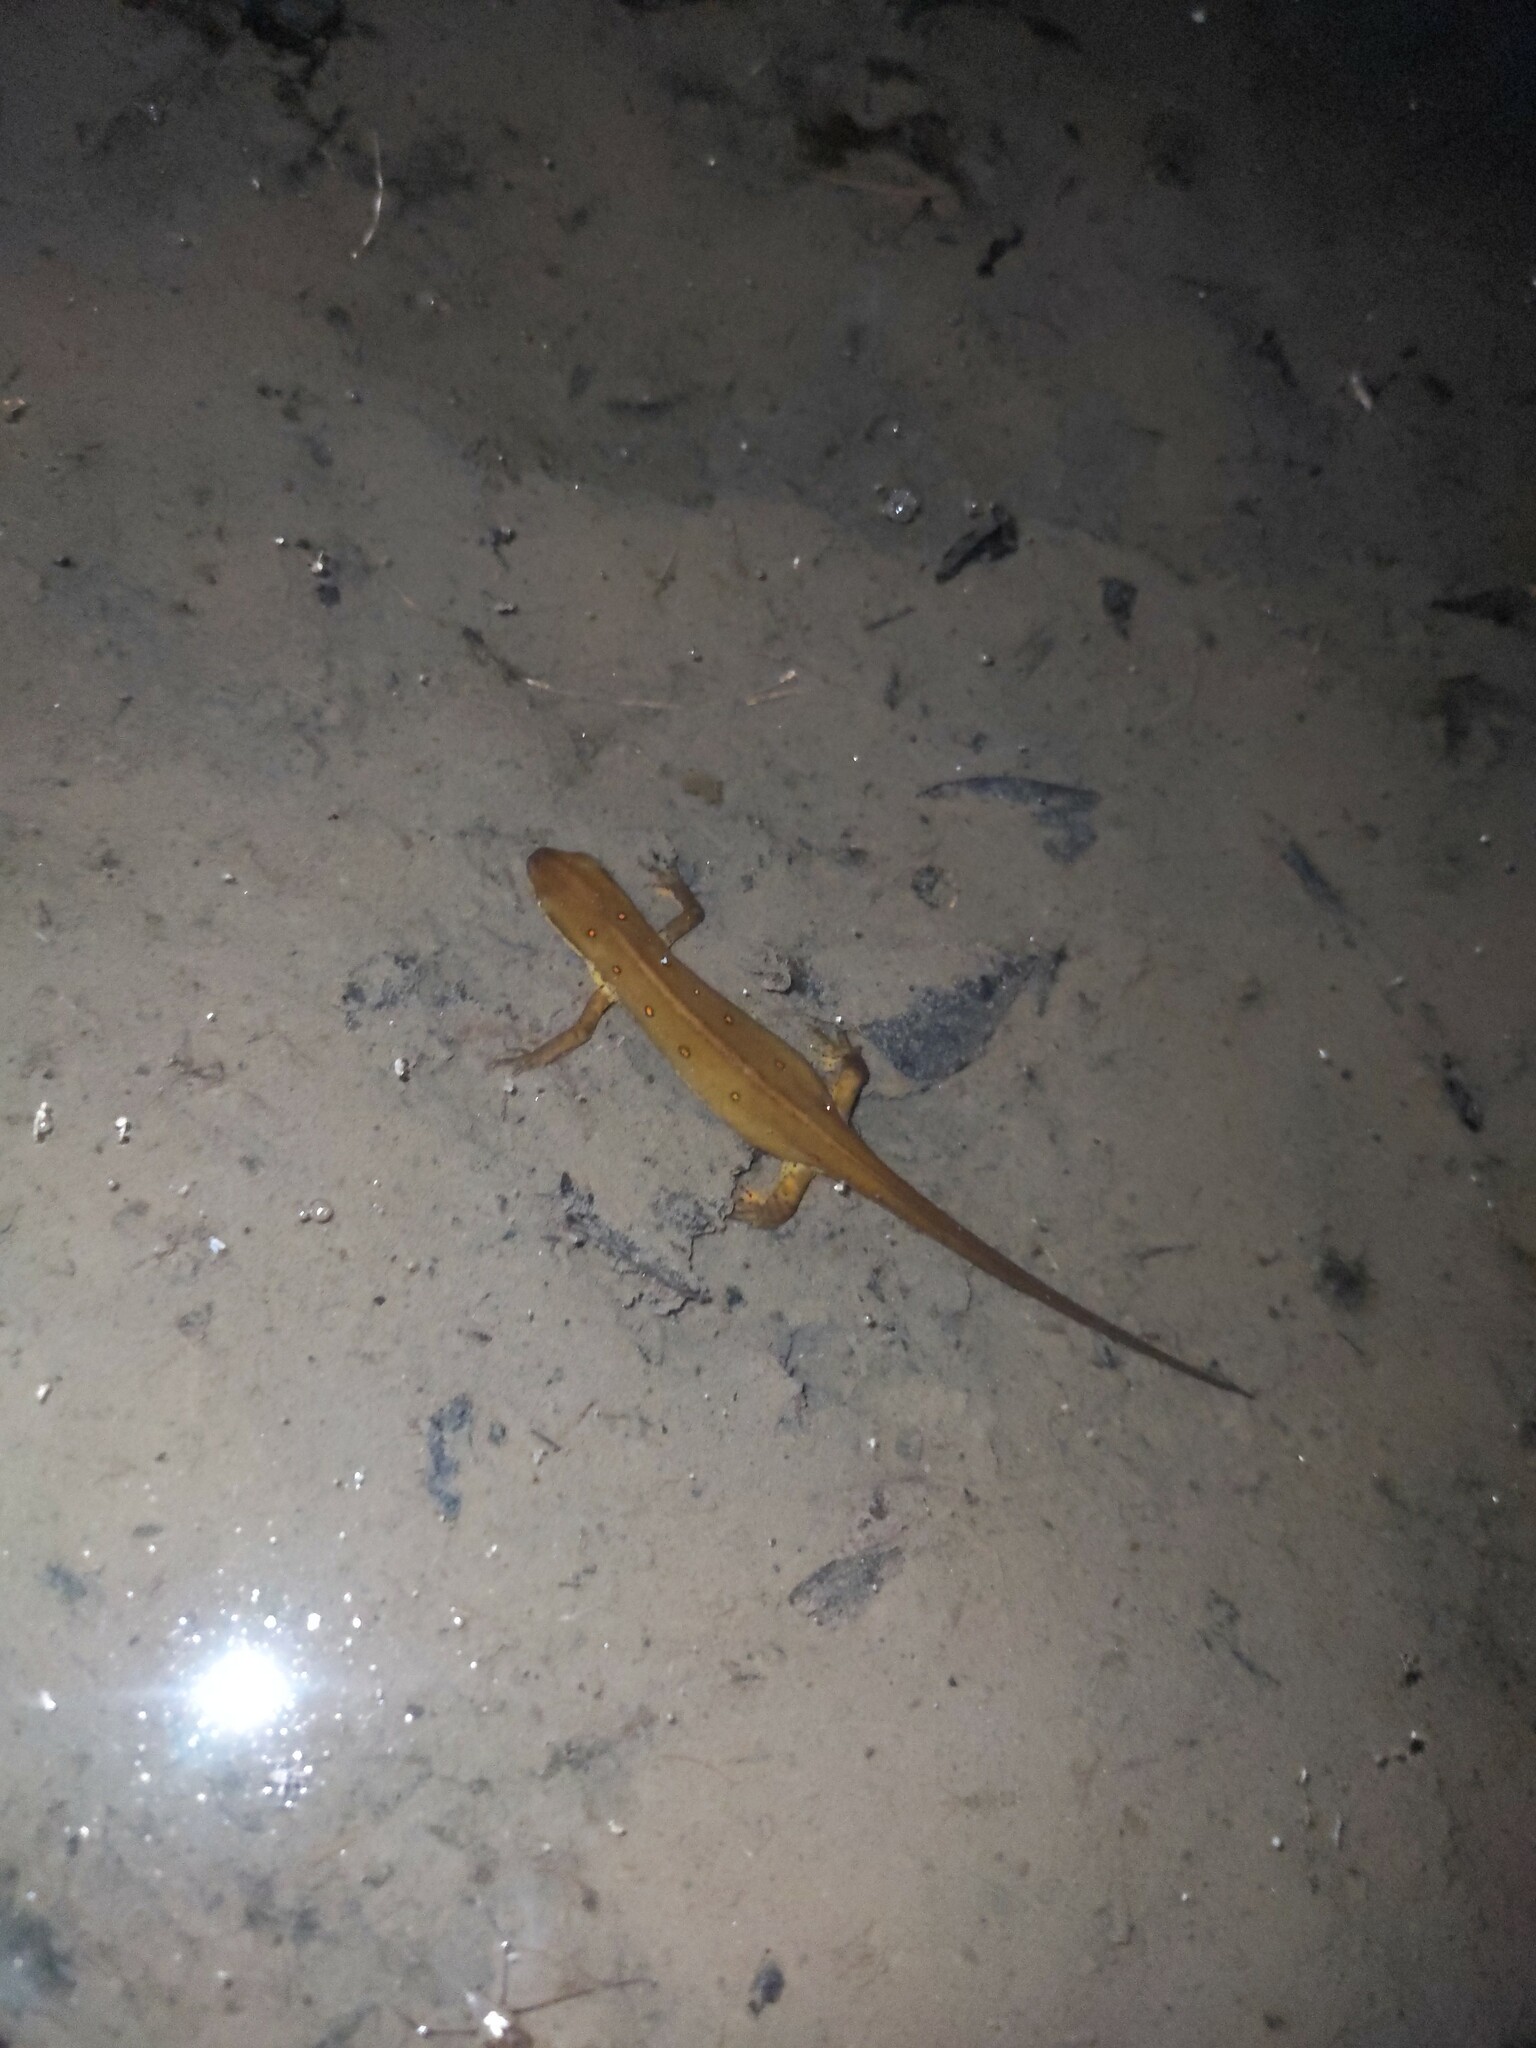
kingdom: Animalia
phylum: Chordata
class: Amphibia
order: Caudata
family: Salamandridae
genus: Notophthalmus
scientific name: Notophthalmus viridescens
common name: Eastern newt
